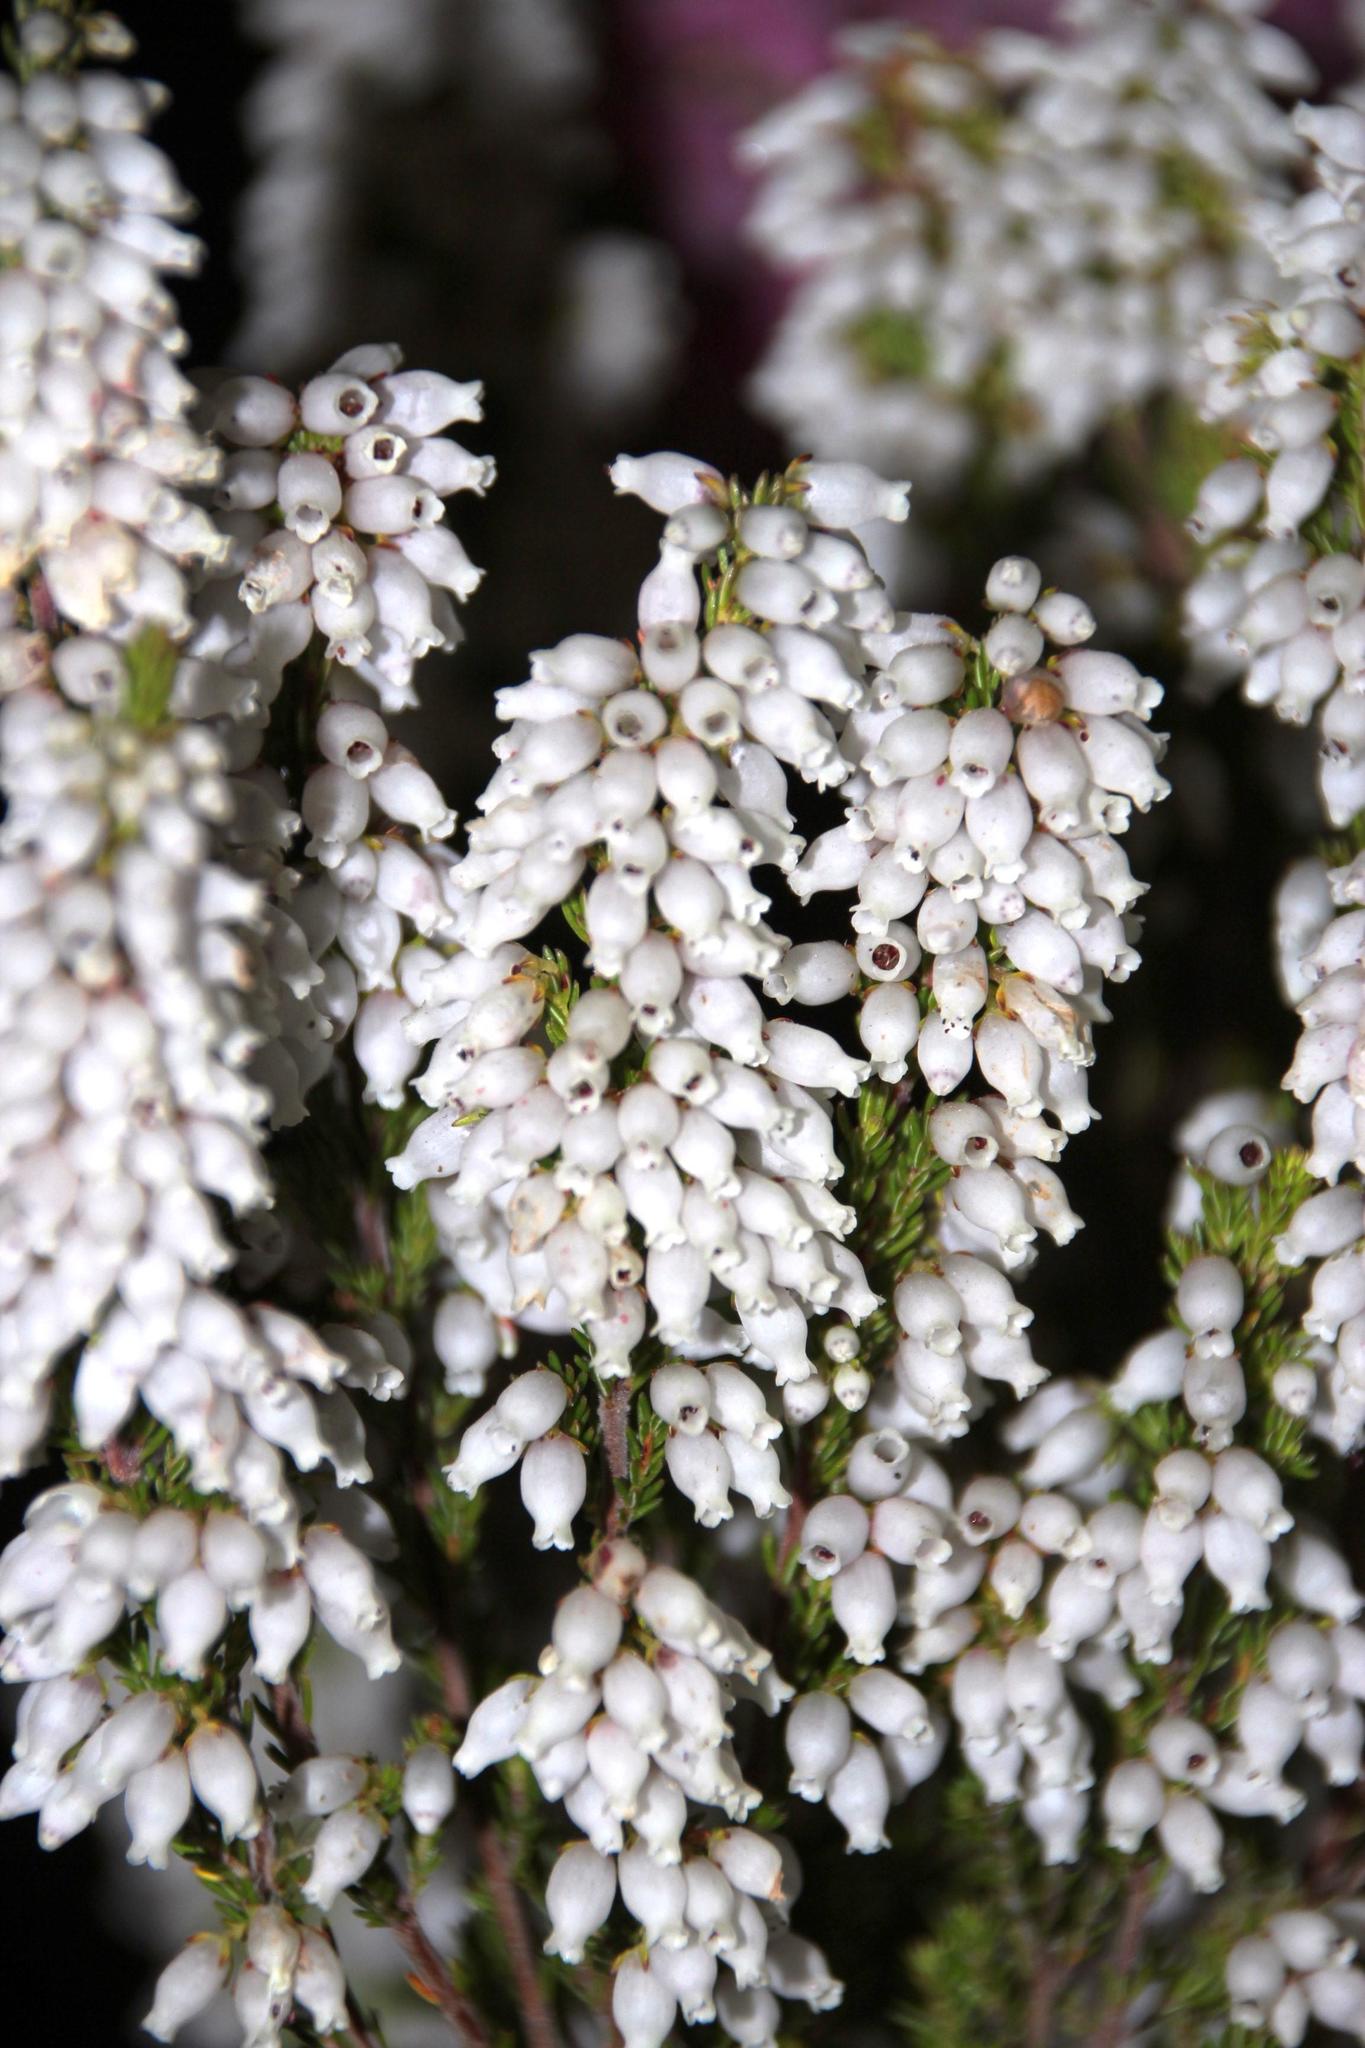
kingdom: Plantae
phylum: Tracheophyta
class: Magnoliopsida
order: Ericales
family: Ericaceae
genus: Erica
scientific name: Erica tenella
